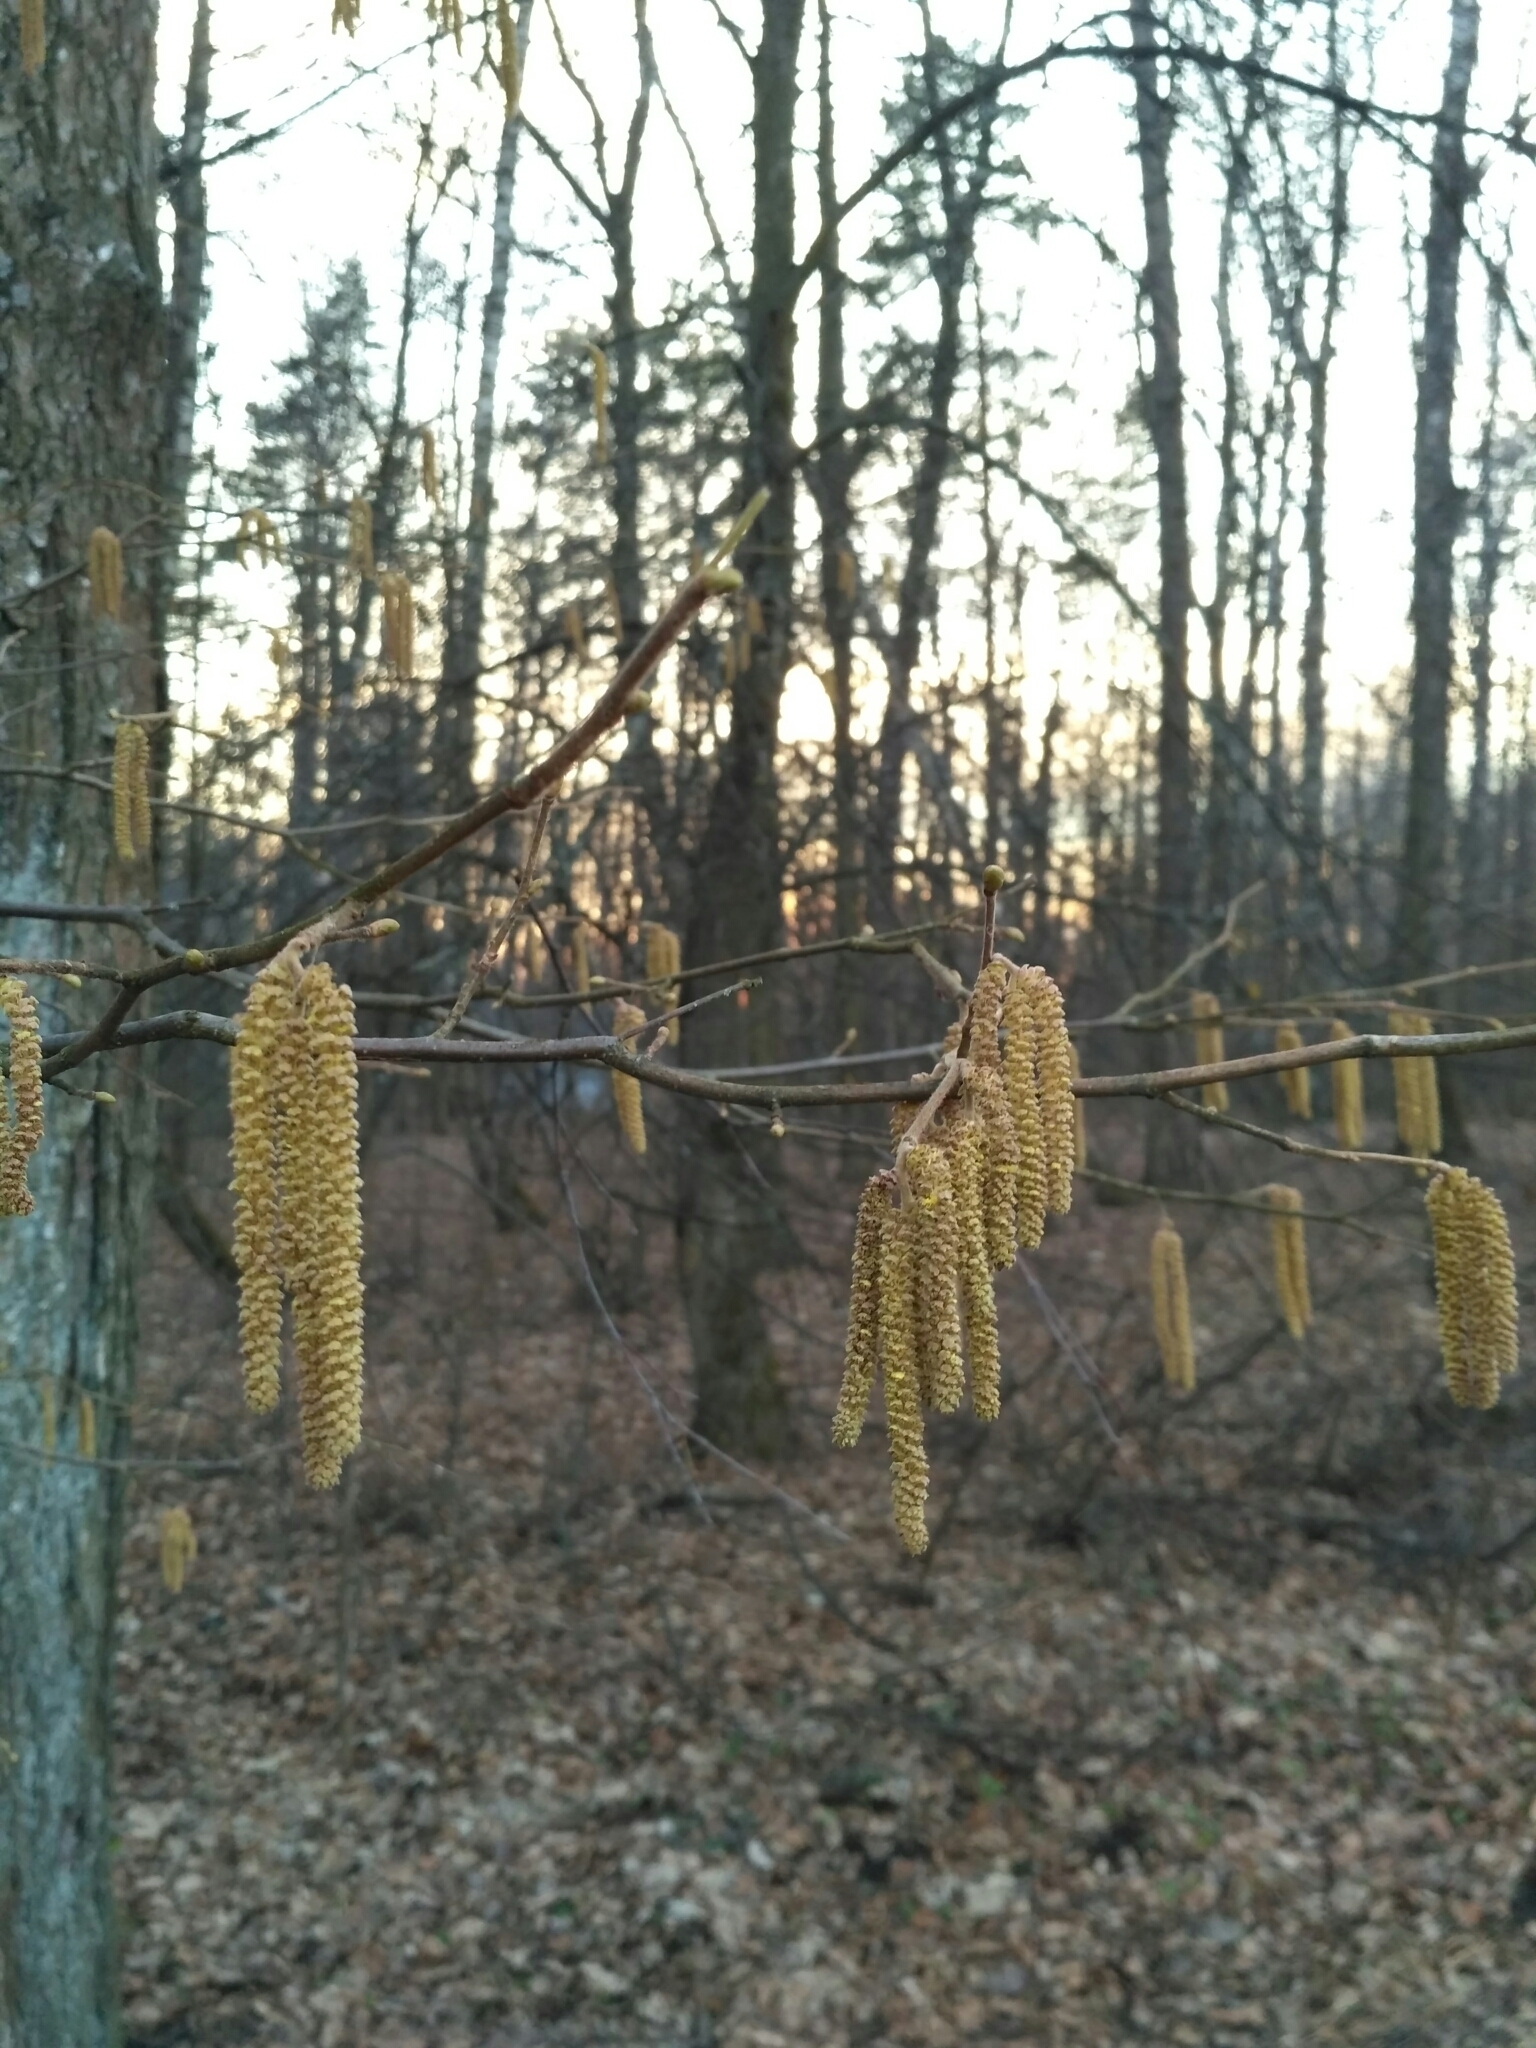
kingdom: Plantae
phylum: Tracheophyta
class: Magnoliopsida
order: Fagales
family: Betulaceae
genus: Corylus
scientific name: Corylus avellana
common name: European hazel
